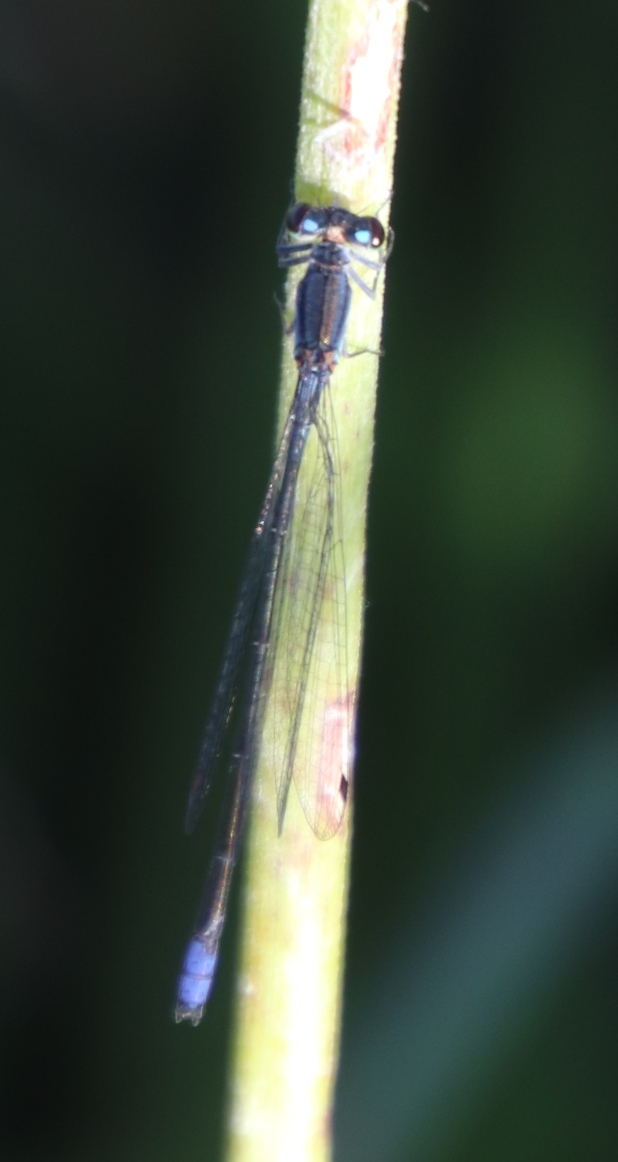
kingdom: Animalia
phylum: Arthropoda
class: Insecta
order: Odonata
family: Coenagrionidae
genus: Pseudagrion
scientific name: Pseudagrion salisburyense
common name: Slate sprite
